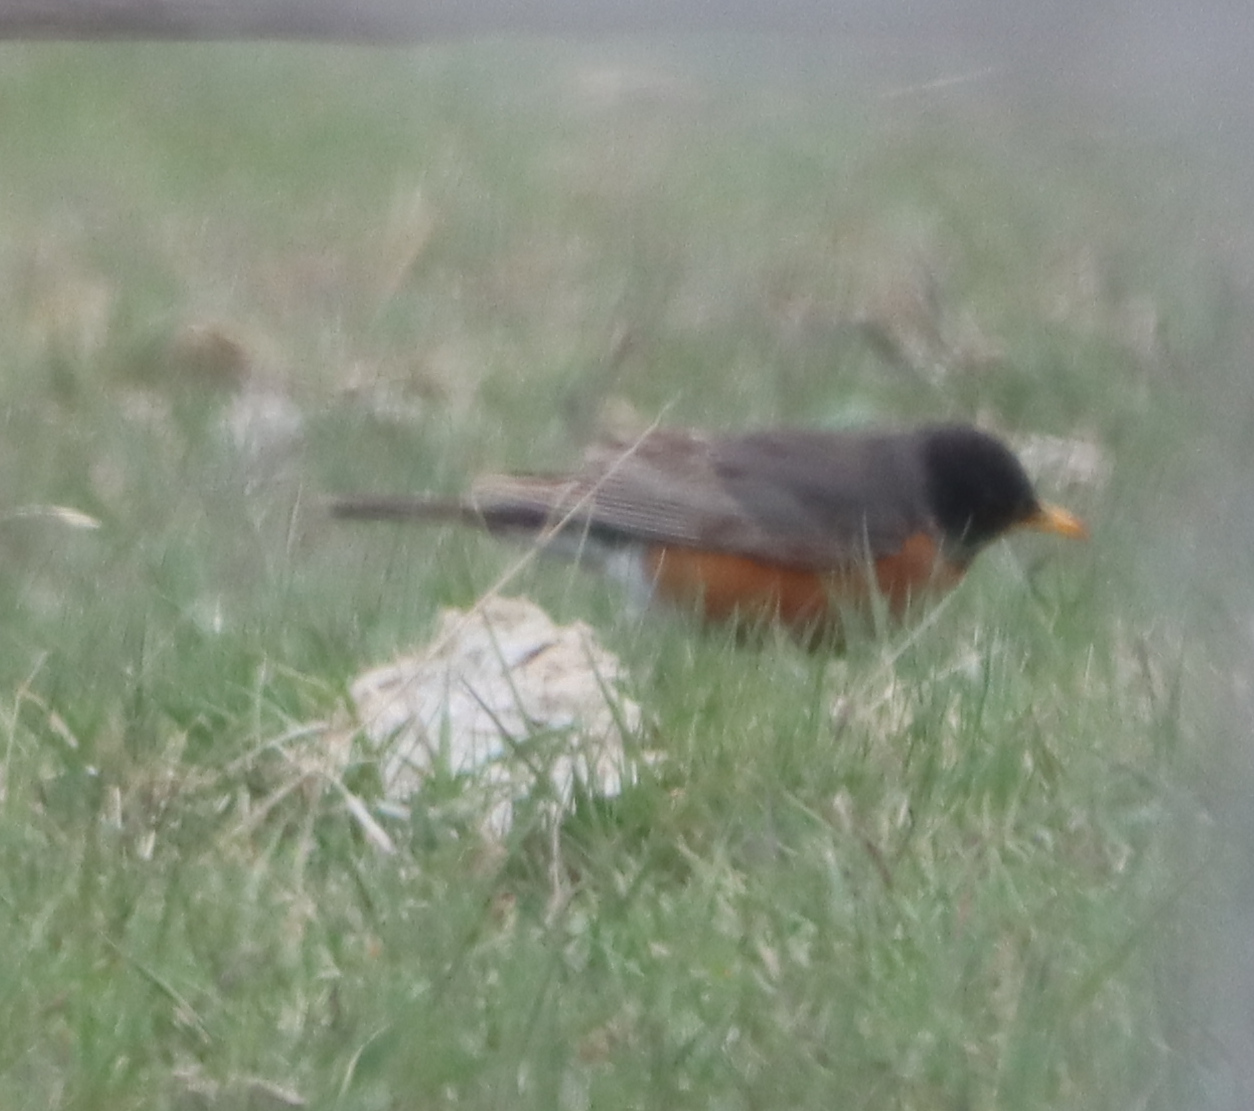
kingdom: Animalia
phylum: Chordata
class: Aves
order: Passeriformes
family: Turdidae
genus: Turdus
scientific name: Turdus migratorius
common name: American robin
